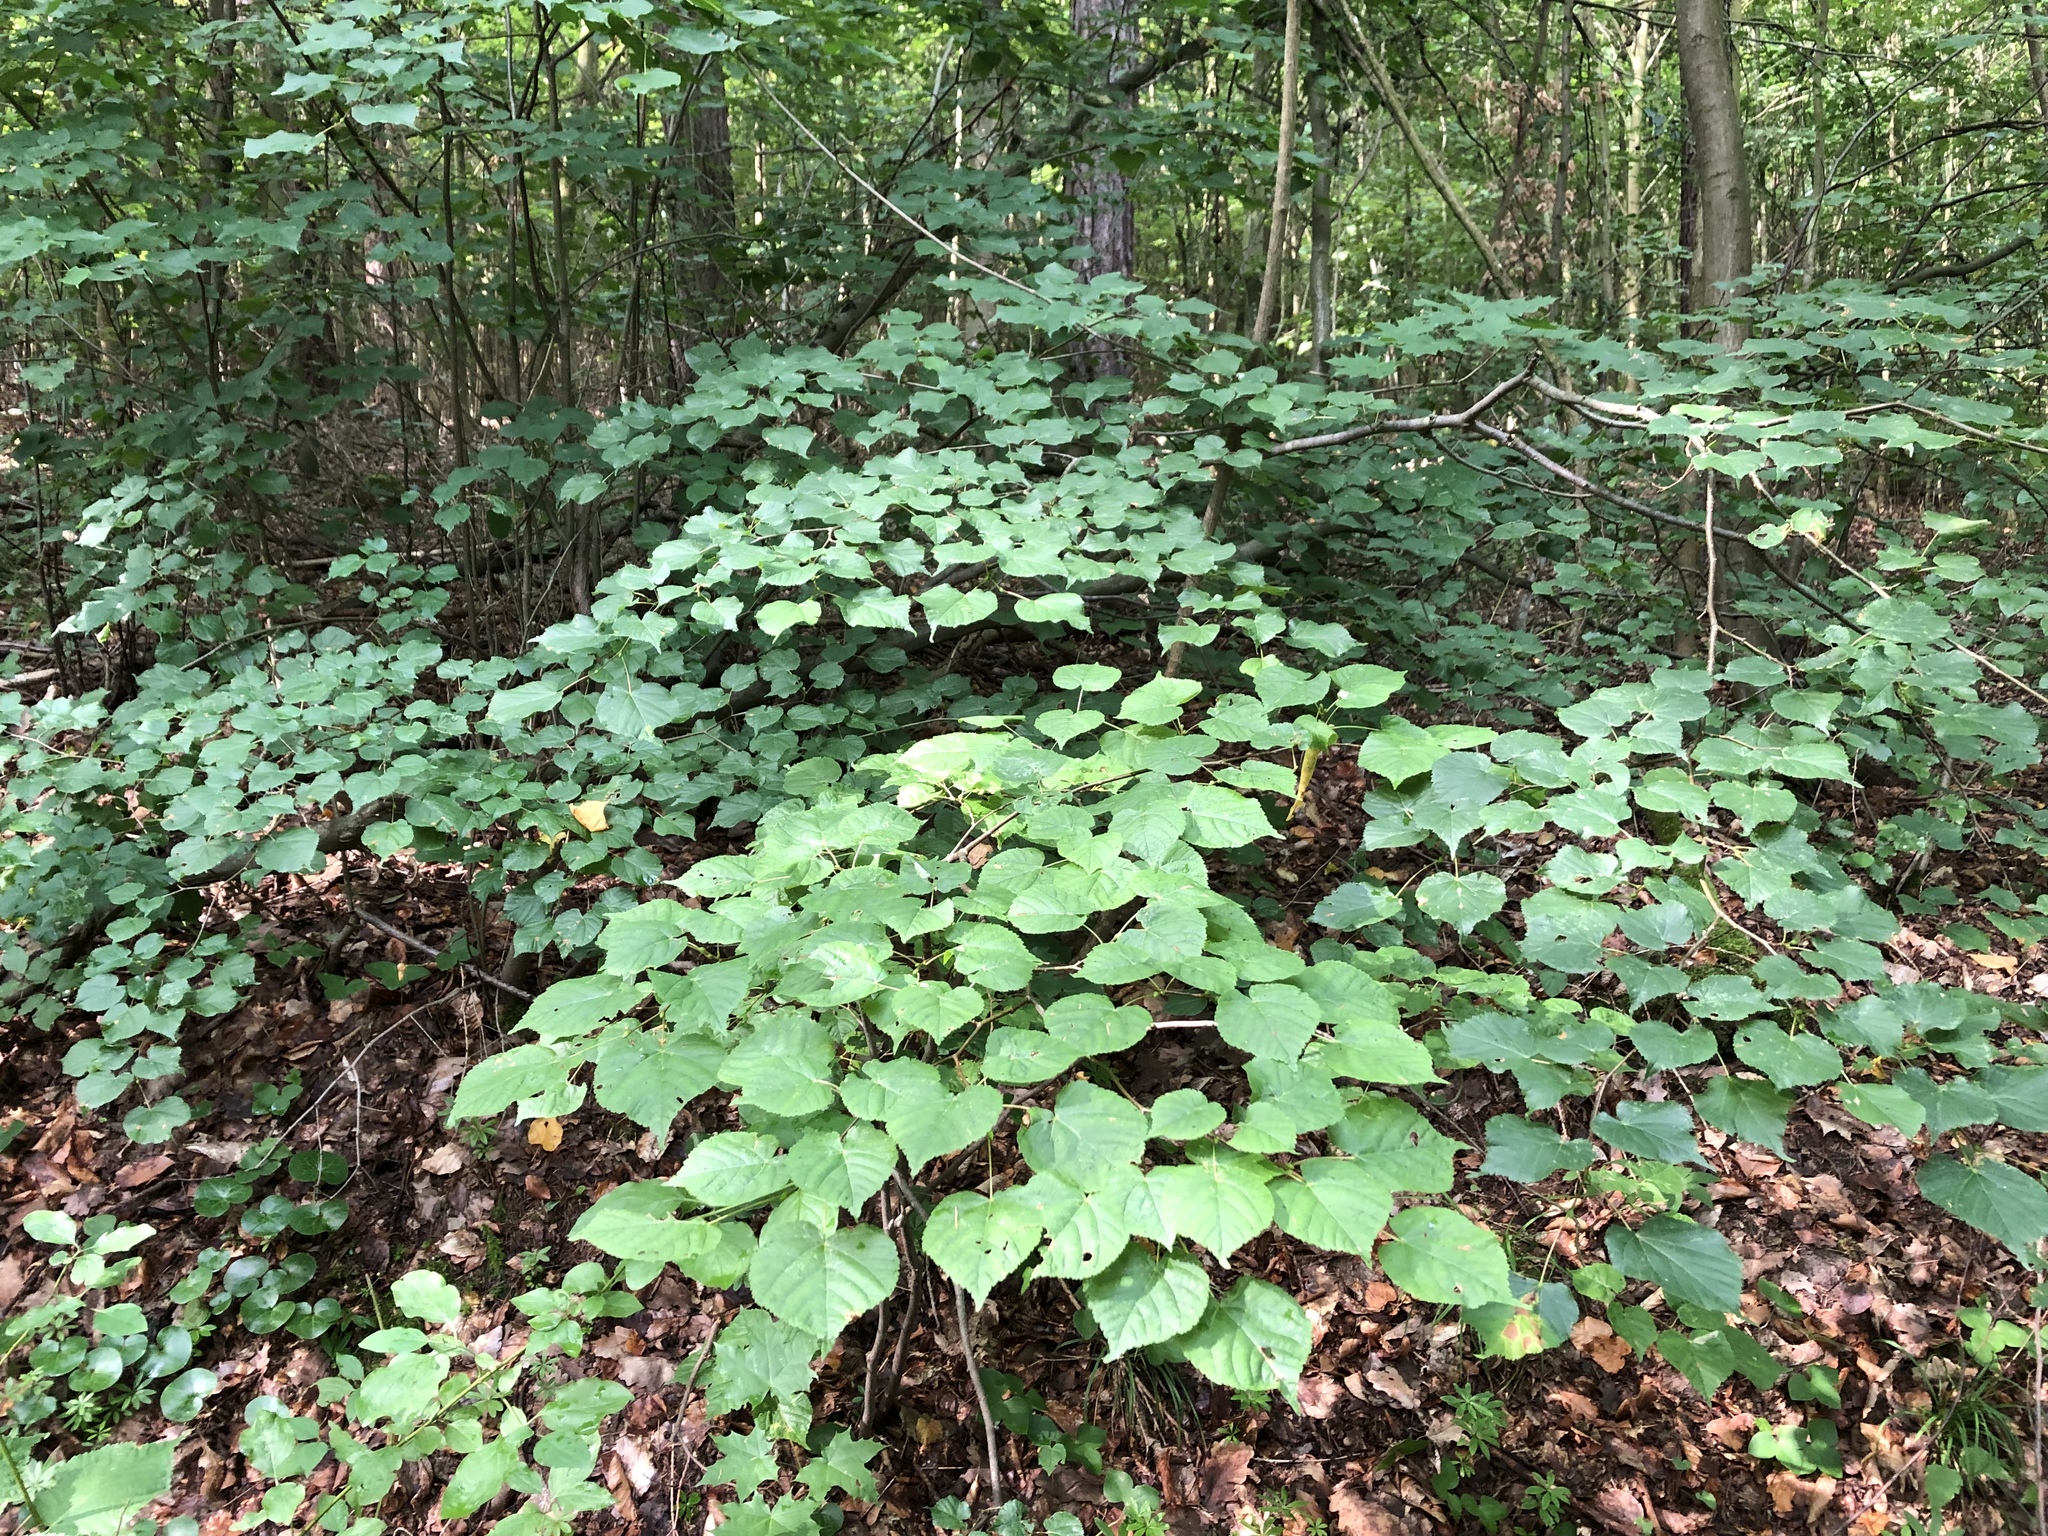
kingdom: Plantae
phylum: Tracheophyta
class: Magnoliopsida
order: Malvales
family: Malvaceae
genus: Tilia
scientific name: Tilia cordata
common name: Small-leaved lime
